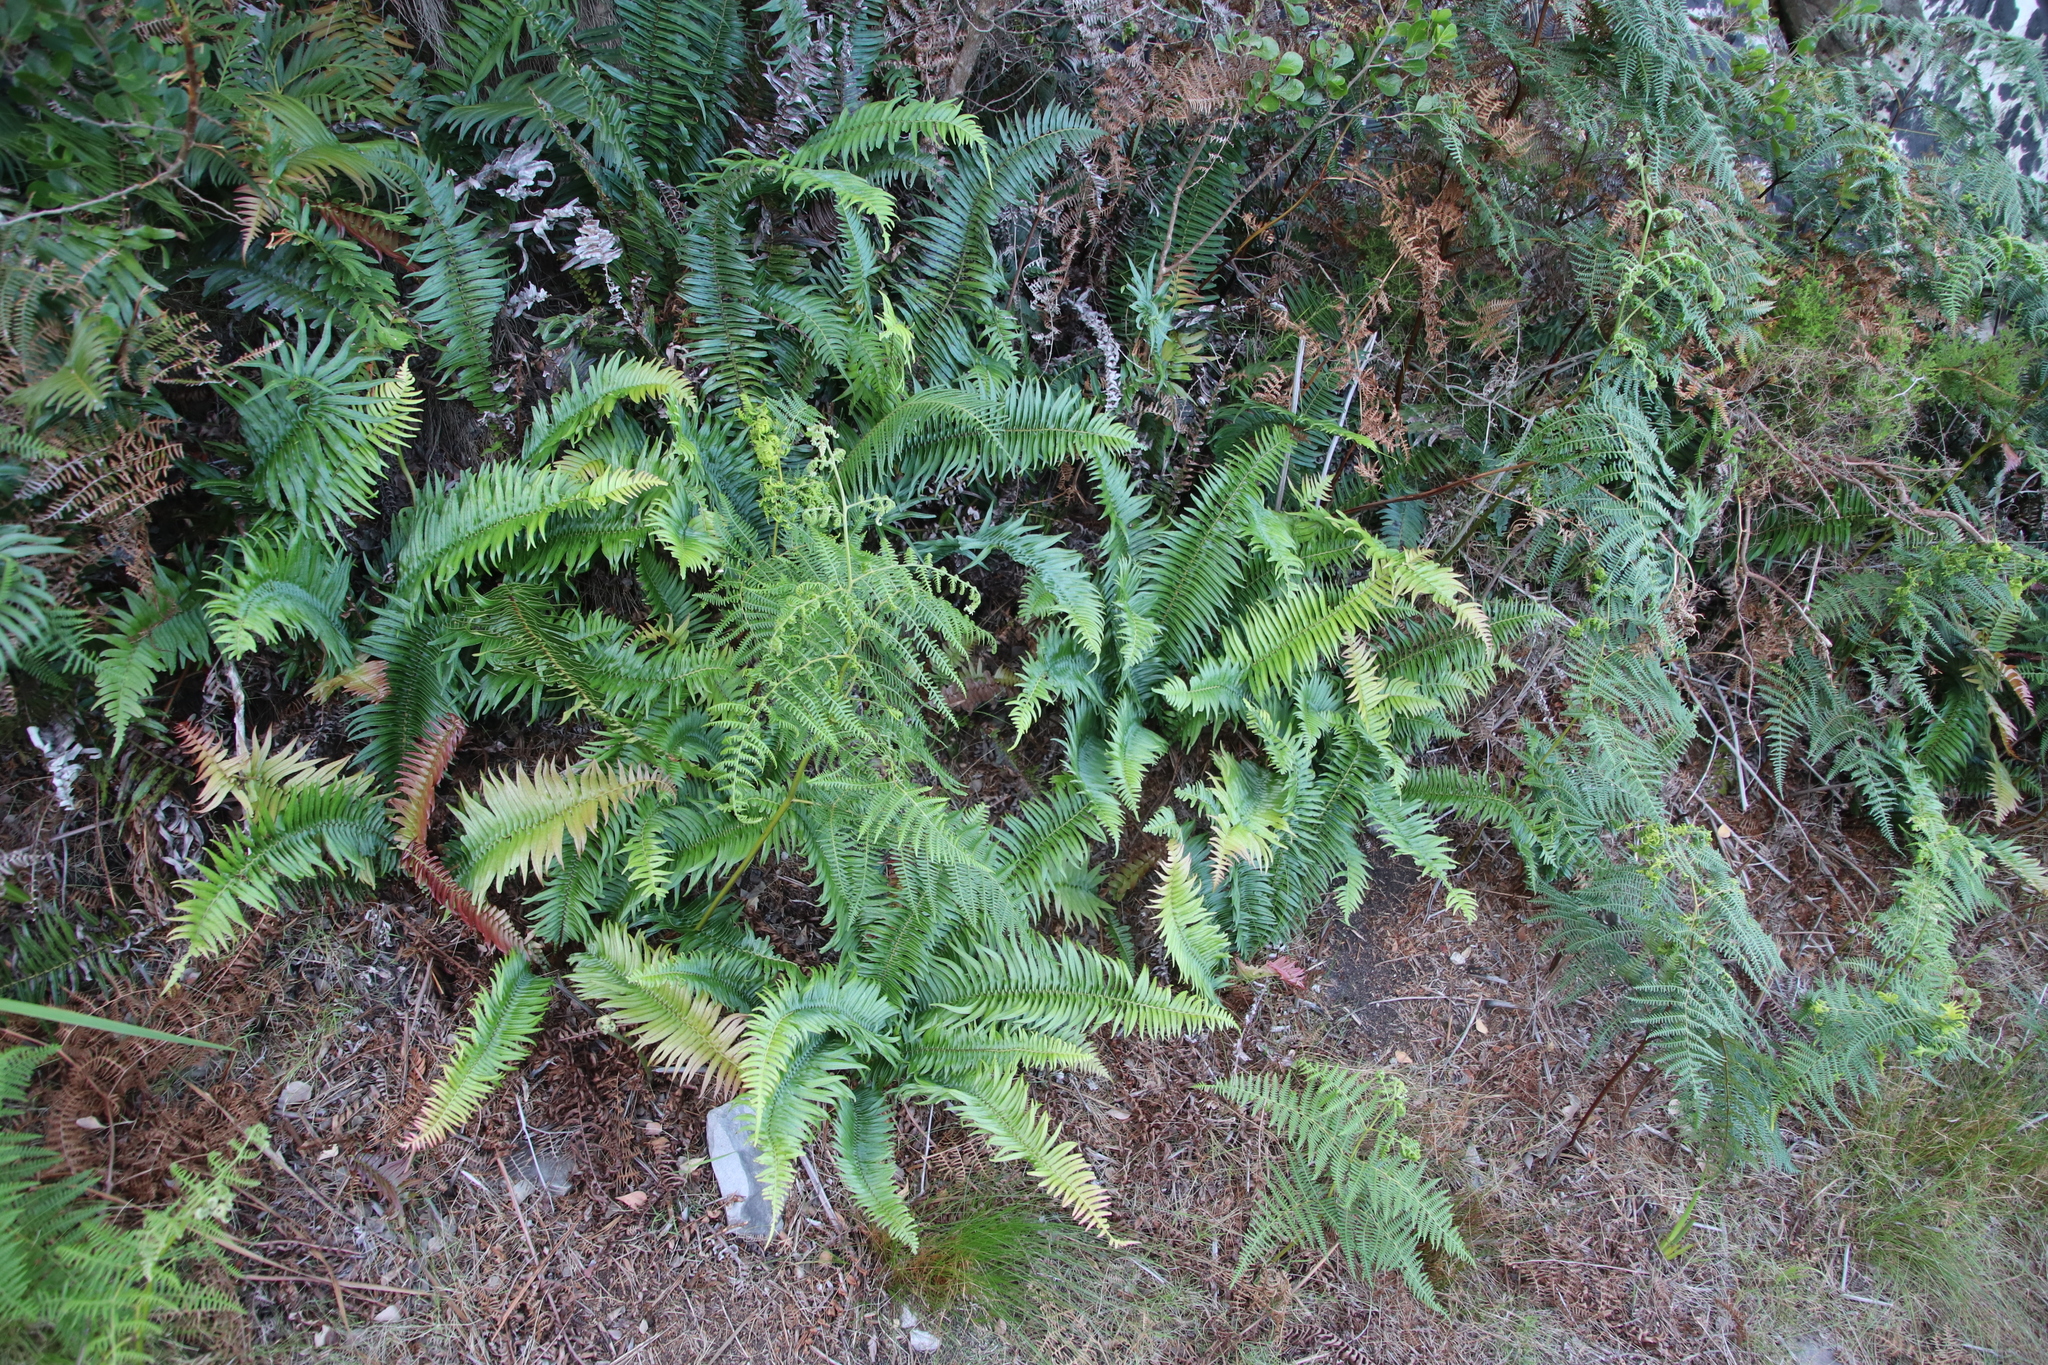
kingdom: Plantae
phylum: Tracheophyta
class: Polypodiopsida
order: Polypodiales
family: Blechnaceae
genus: Blechnum
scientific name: Blechnum punctulatum
